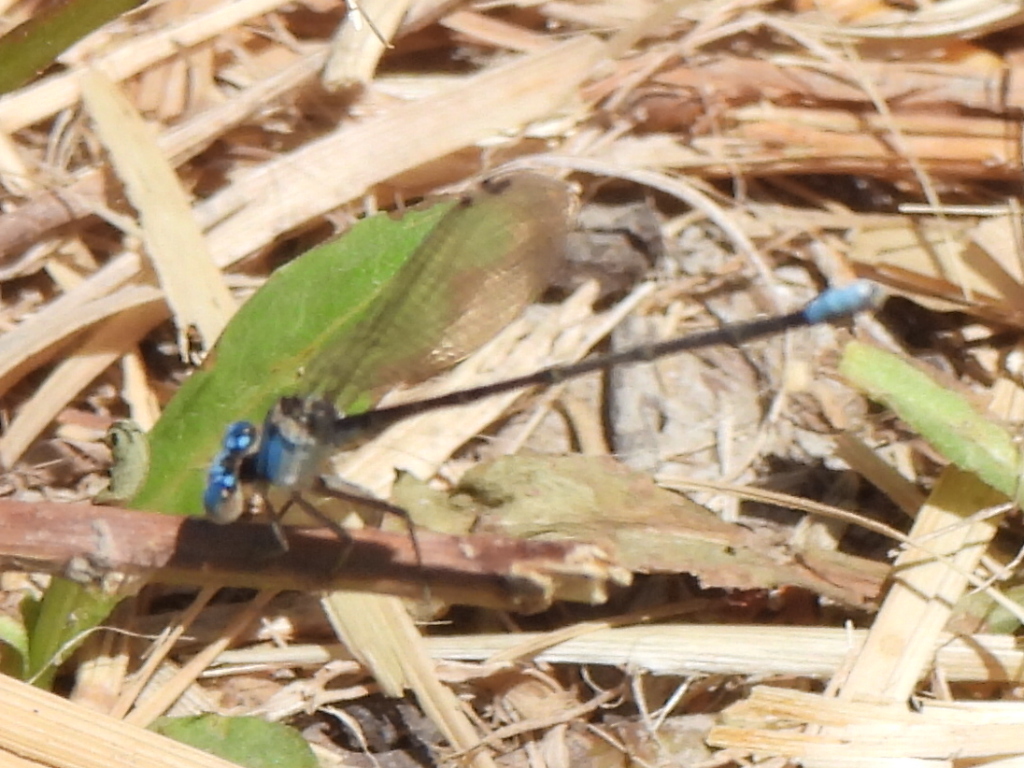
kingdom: Animalia
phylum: Arthropoda
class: Insecta
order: Odonata
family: Coenagrionidae
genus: Argia
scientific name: Argia apicalis
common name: Blue-fronted dancer
